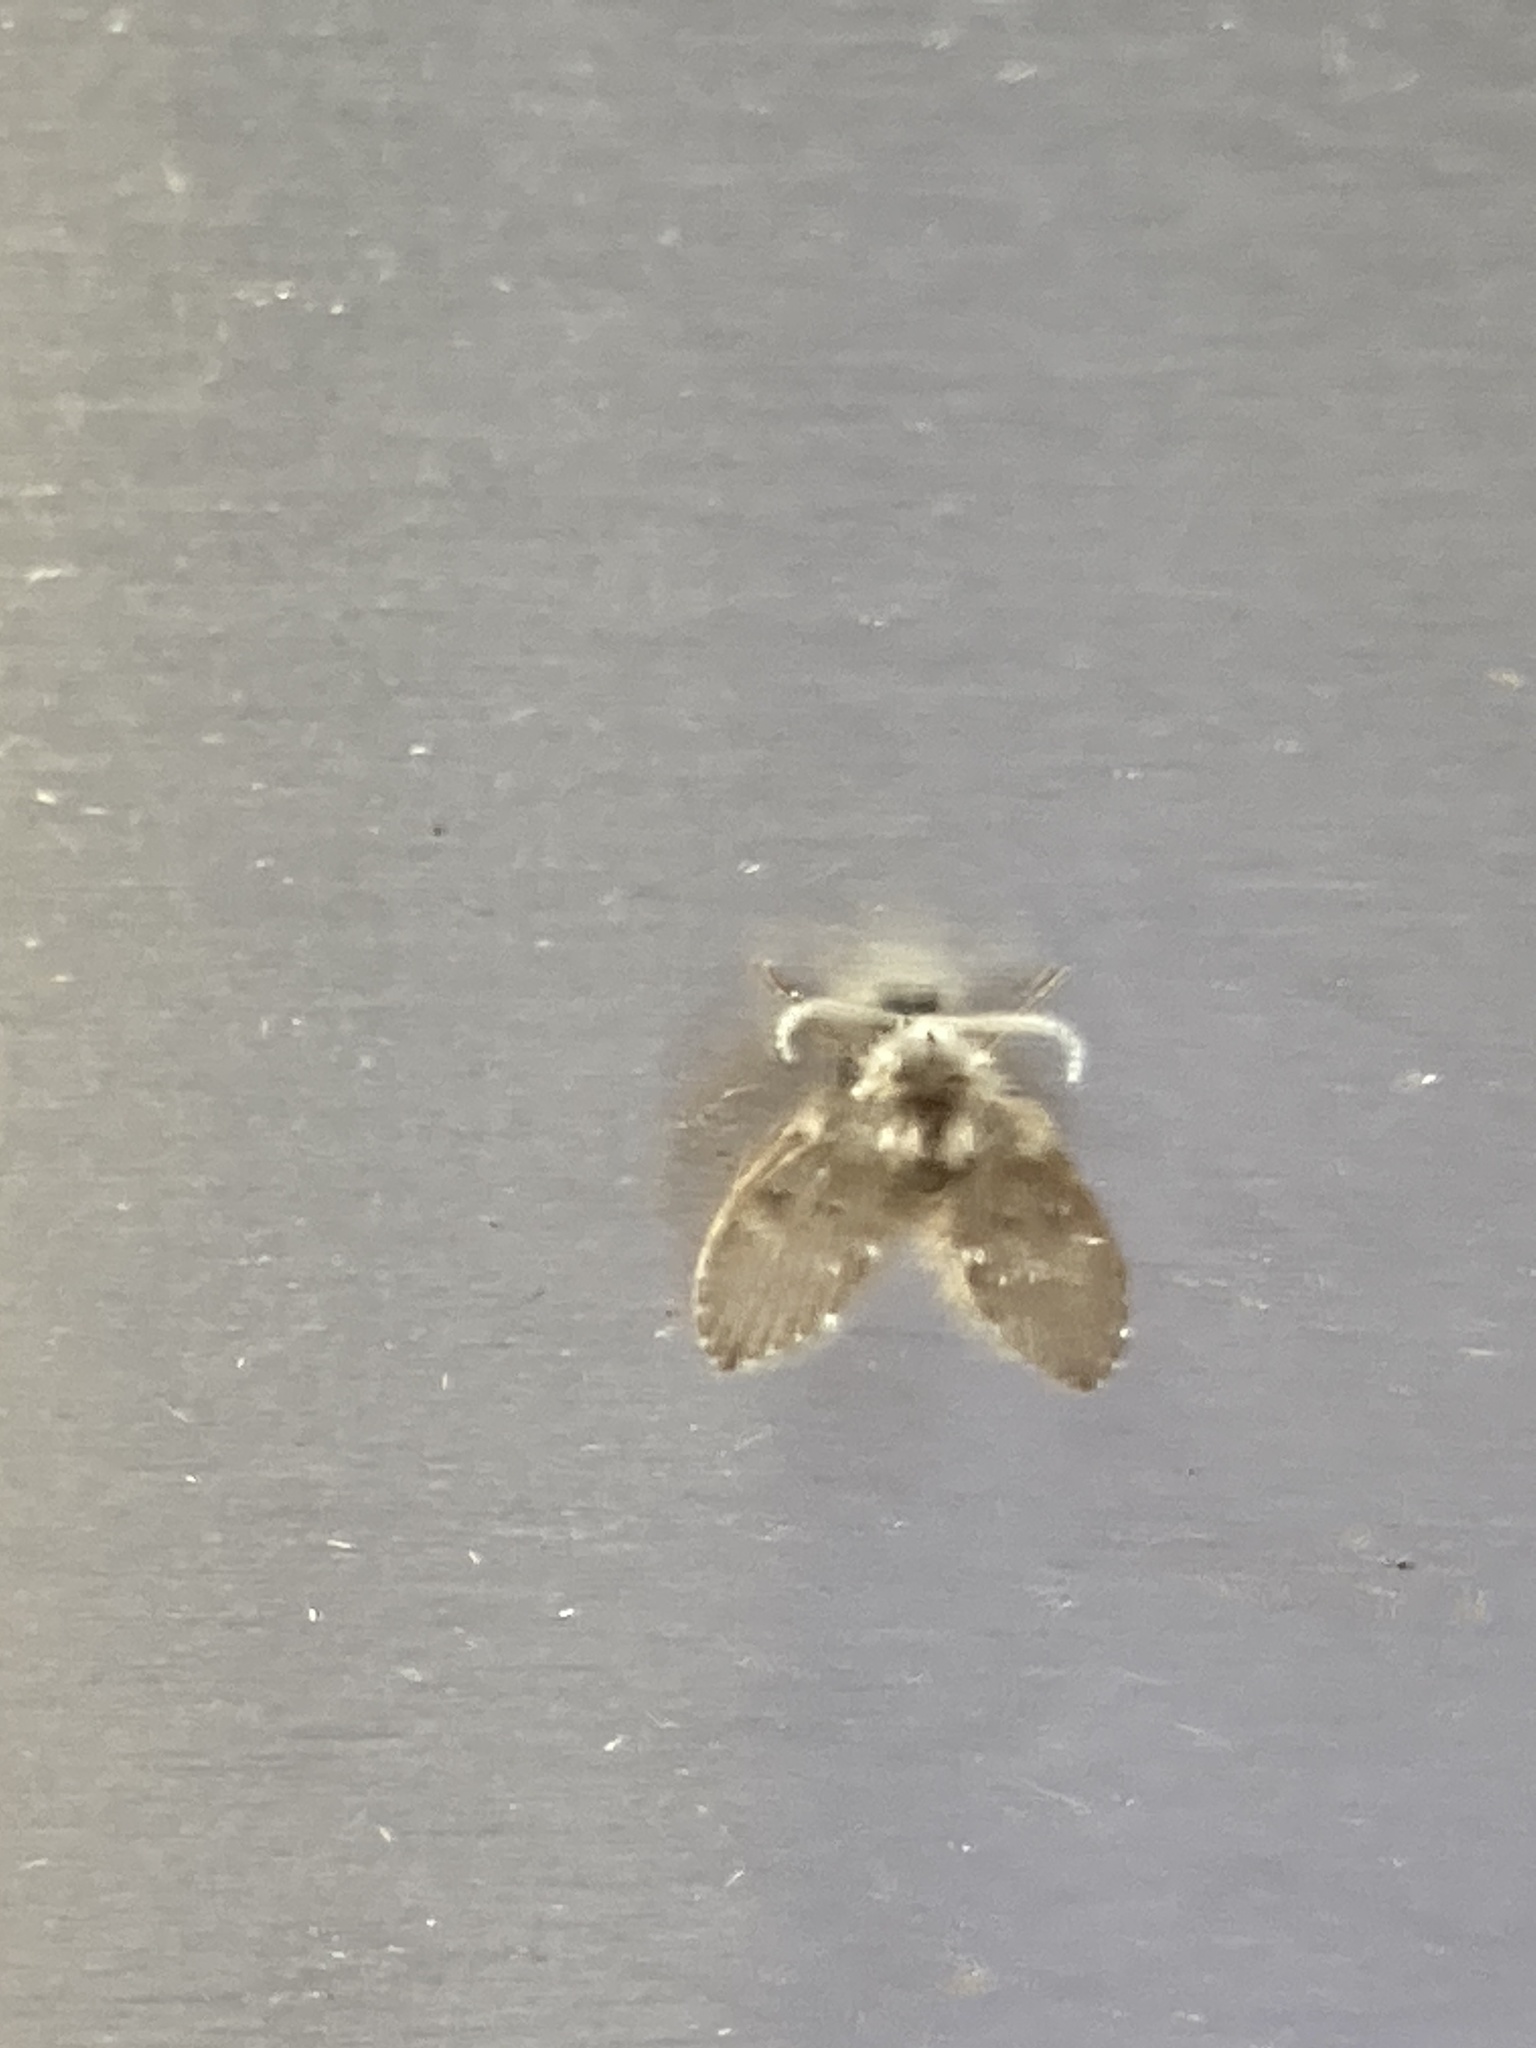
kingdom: Animalia
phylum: Arthropoda
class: Insecta
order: Diptera
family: Psychodidae
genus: Clogmia
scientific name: Clogmia albipunctatus
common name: White-spotted moth fly
